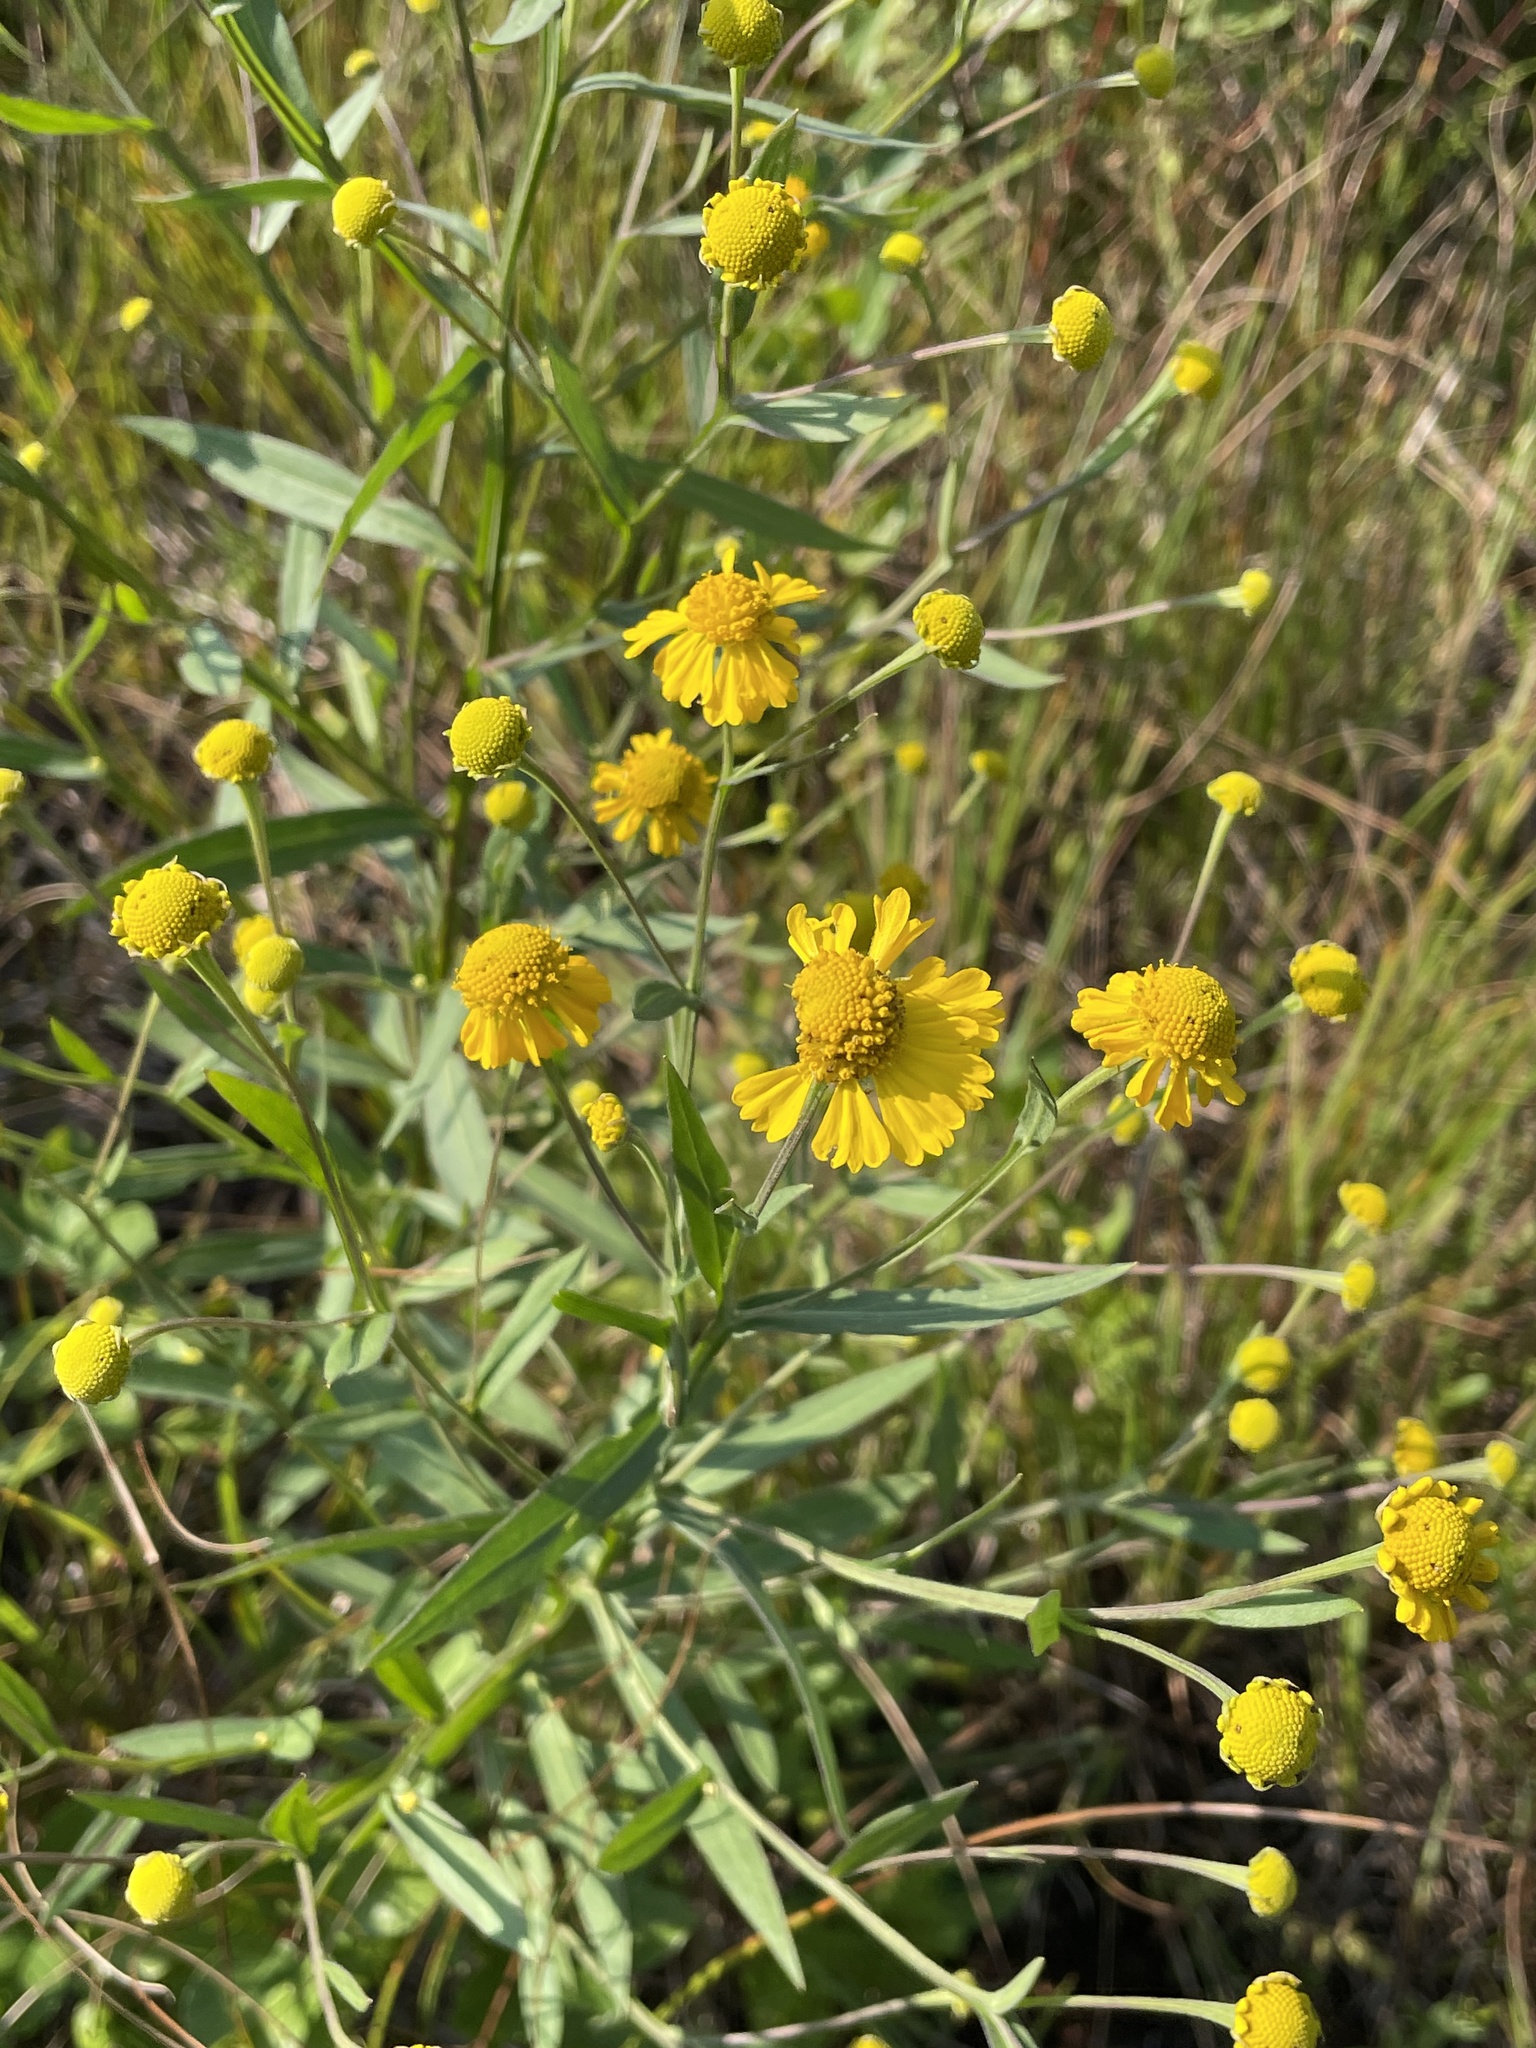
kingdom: Plantae
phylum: Tracheophyta
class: Magnoliopsida
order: Asterales
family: Asteraceae
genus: Helenium
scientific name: Helenium autumnale
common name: Sneezeweed
